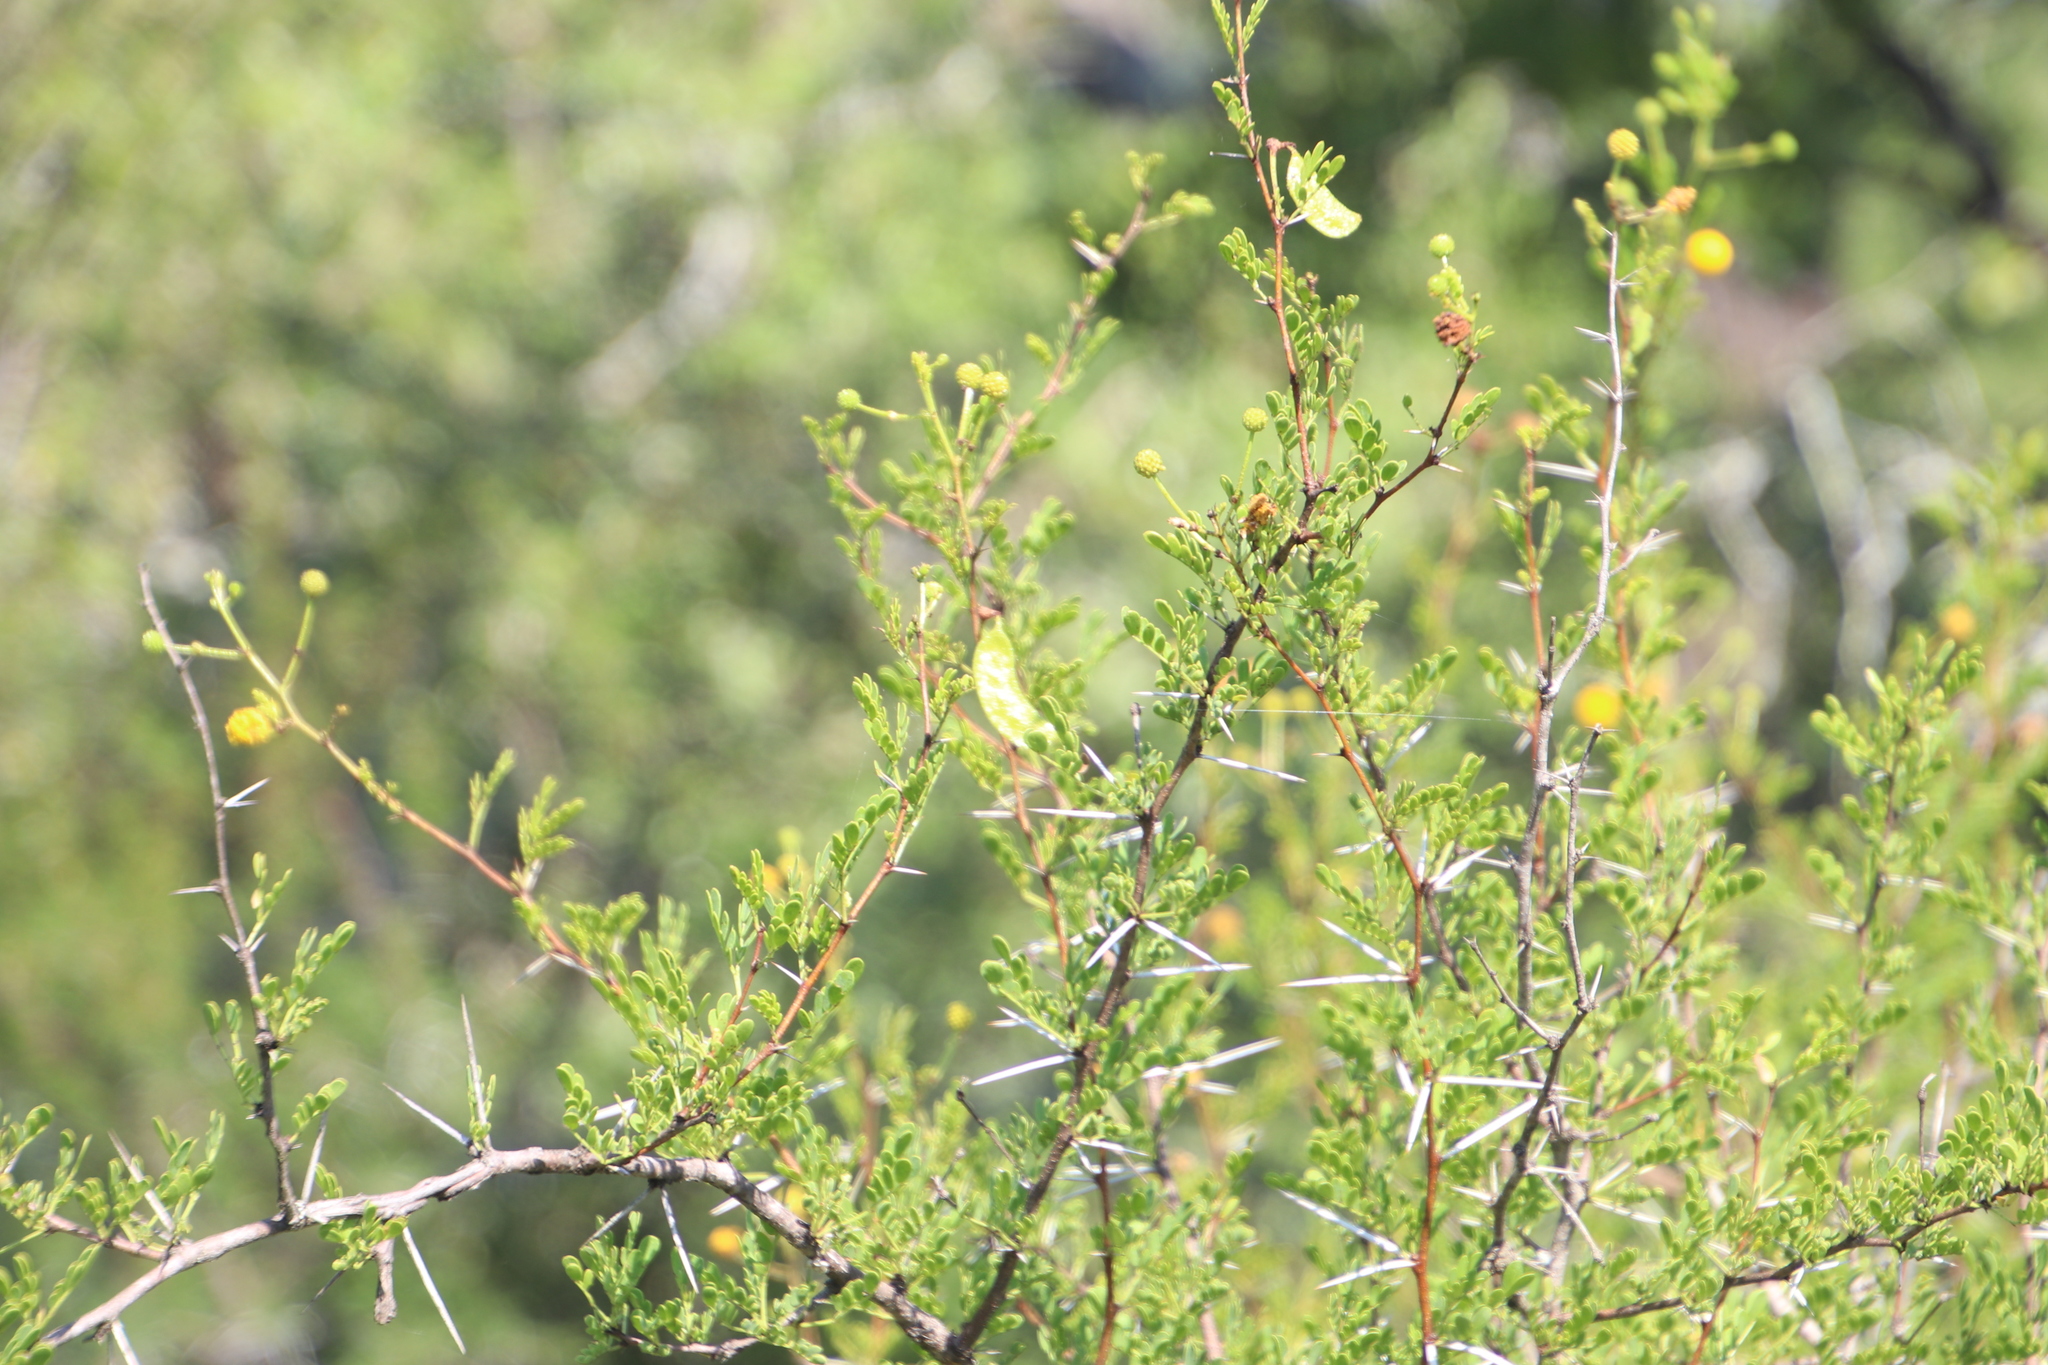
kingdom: Plantae
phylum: Tracheophyta
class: Magnoliopsida
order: Fabales
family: Fabaceae
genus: Vachellia
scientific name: Vachellia swazica
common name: Swazi thorn
